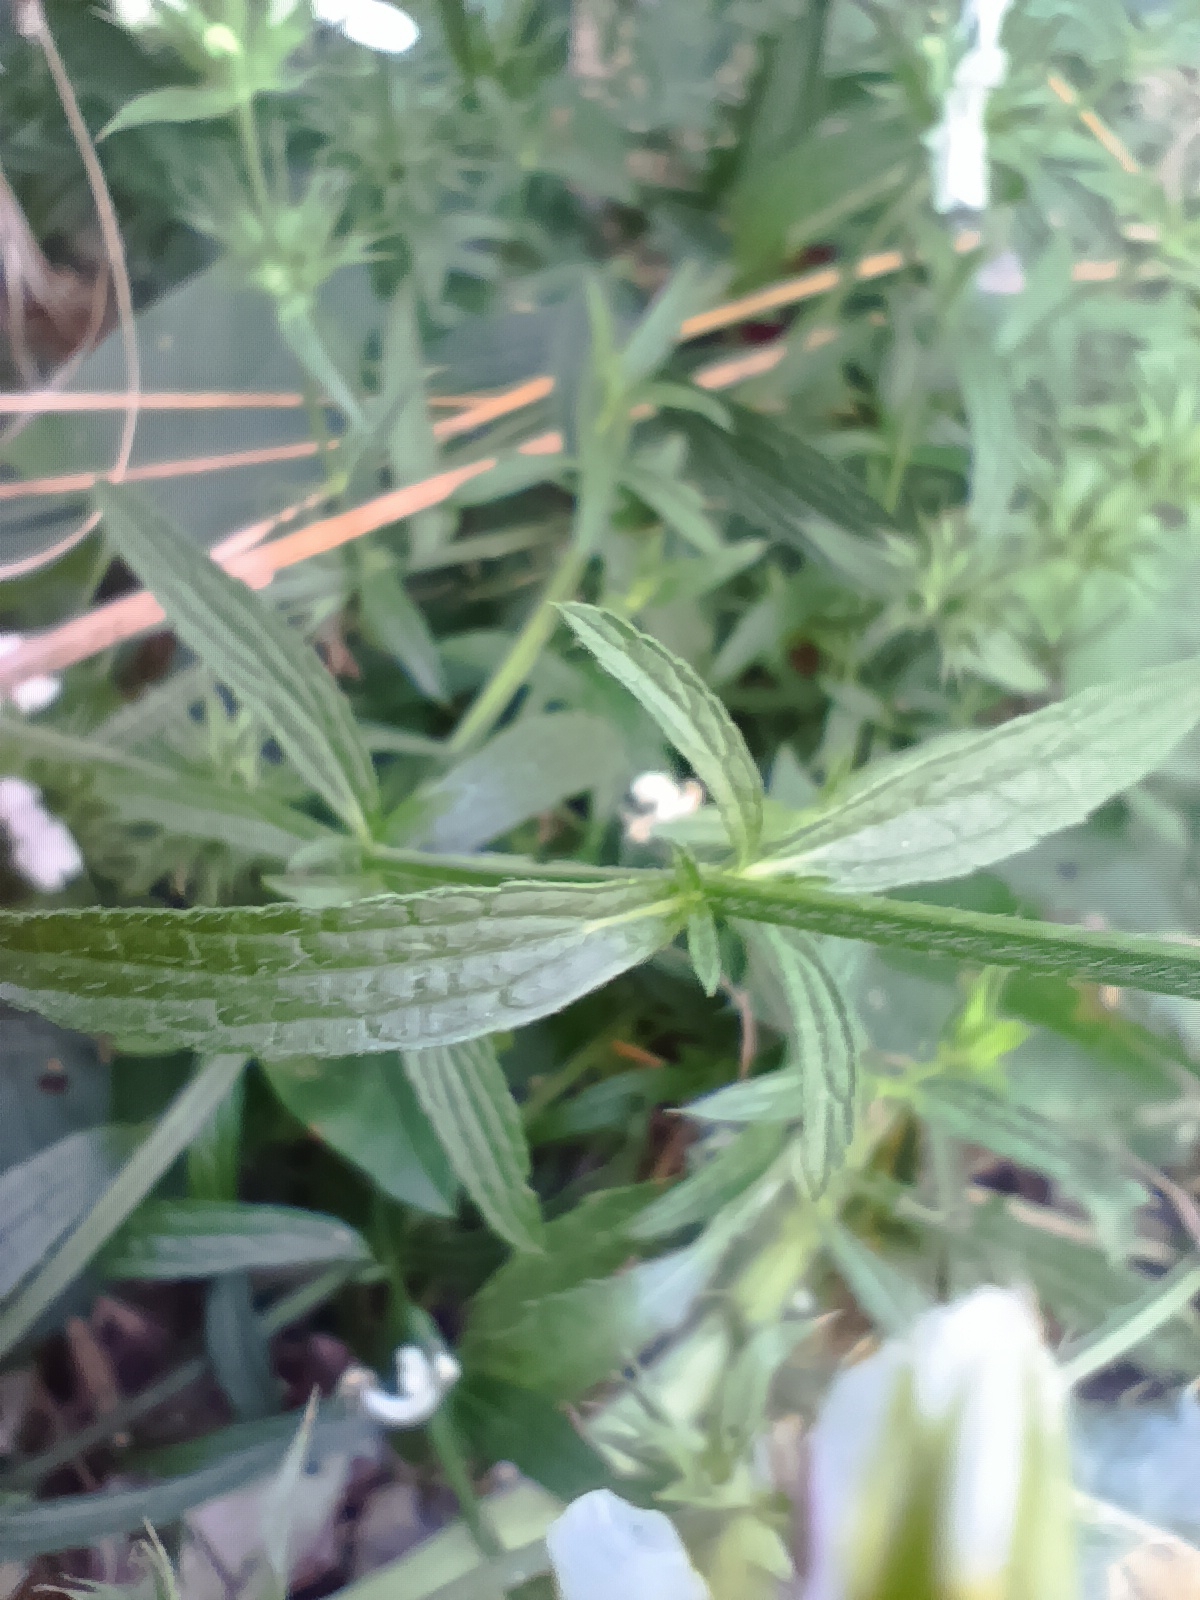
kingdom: Plantae
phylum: Tracheophyta
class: Magnoliopsida
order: Lamiales
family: Lamiaceae
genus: Stachys
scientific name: Stachys atherocalyx
